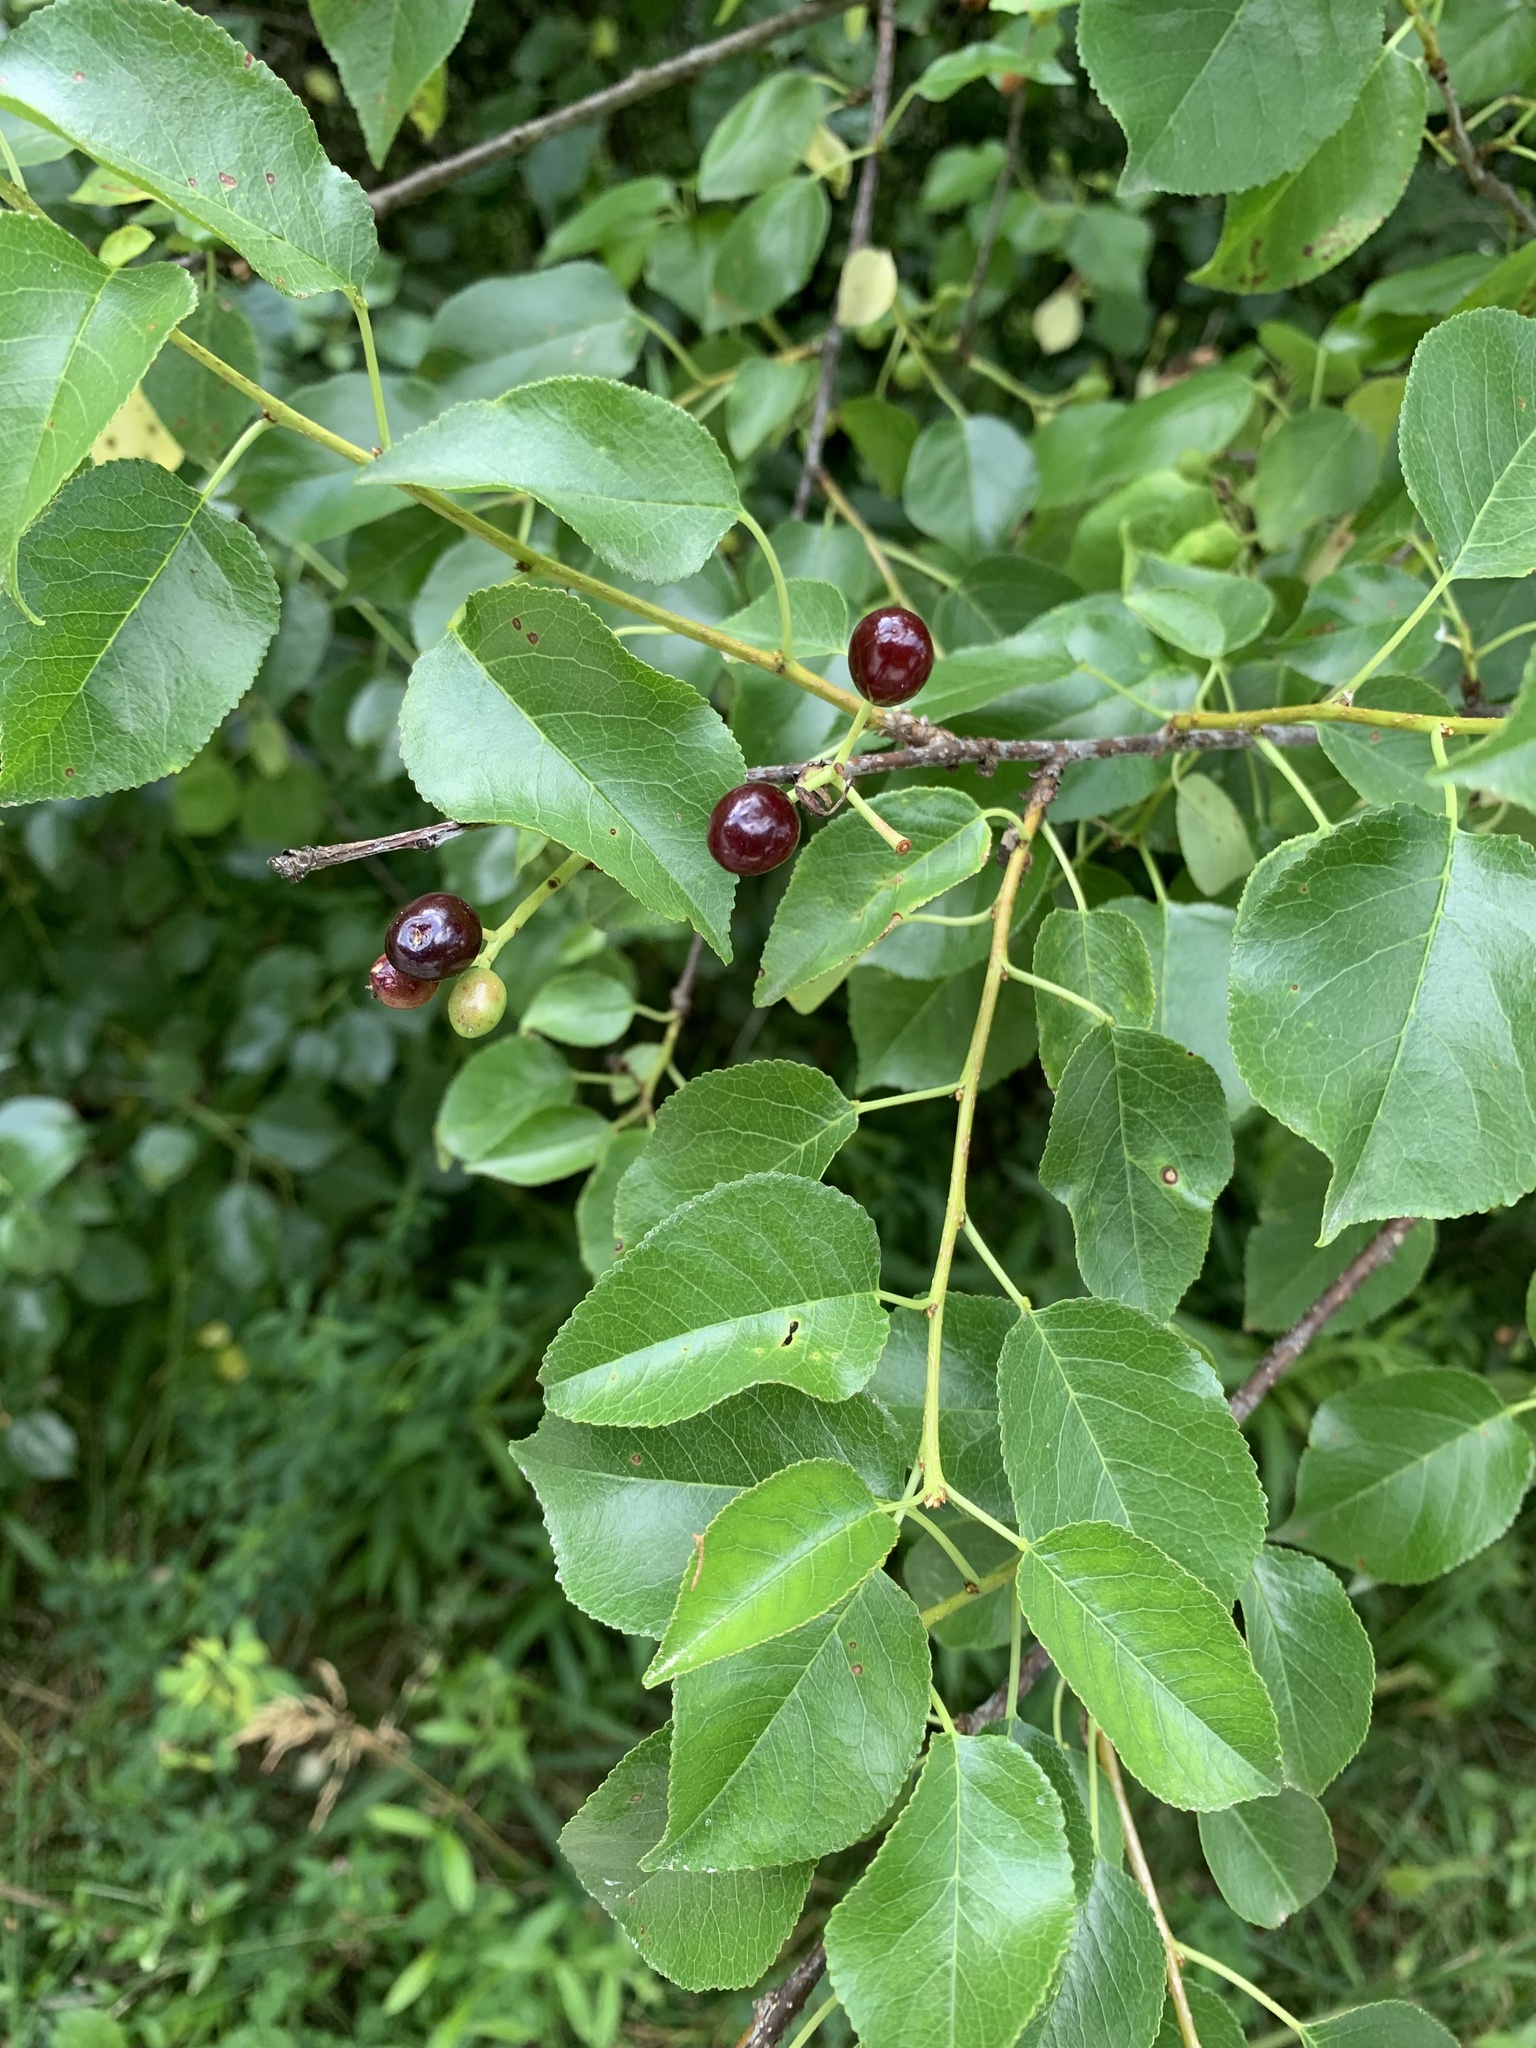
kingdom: Plantae
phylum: Tracheophyta
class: Magnoliopsida
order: Rosales
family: Rosaceae
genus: Prunus
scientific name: Prunus mahaleb
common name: Mahaleb cherry
